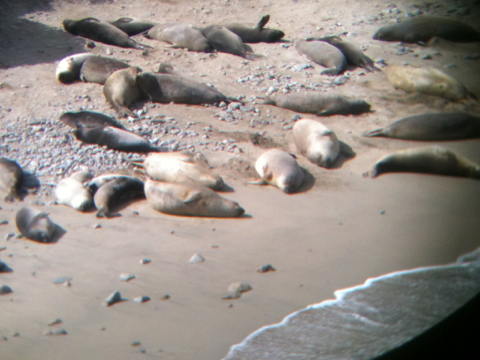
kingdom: Animalia
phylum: Chordata
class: Mammalia
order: Carnivora
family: Phocidae
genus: Mirounga
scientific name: Mirounga angustirostris
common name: Northern elephant seal
